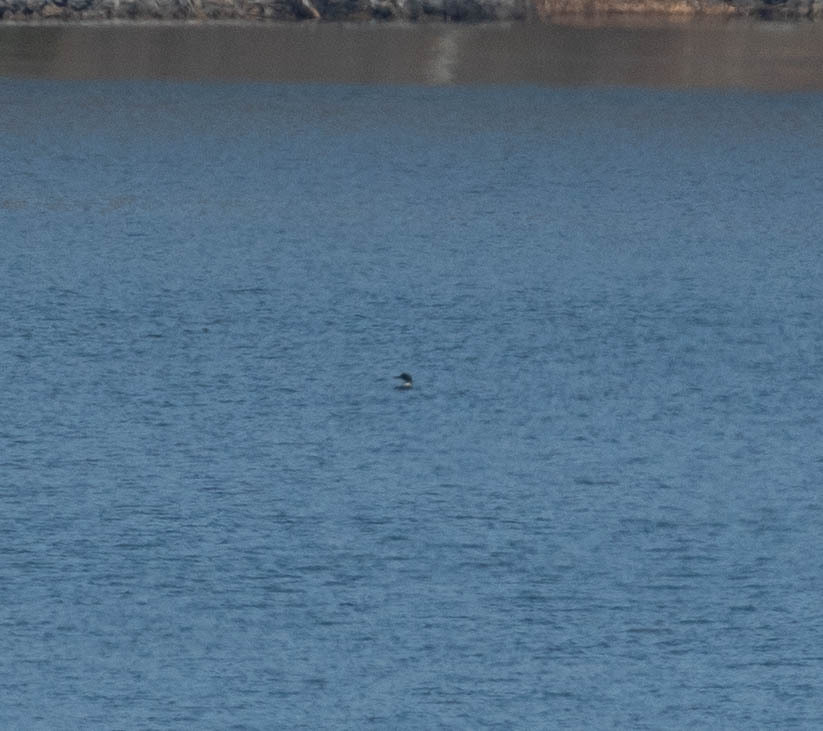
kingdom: Animalia
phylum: Chordata
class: Aves
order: Gaviiformes
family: Gaviidae
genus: Gavia
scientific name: Gavia immer
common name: Common loon
